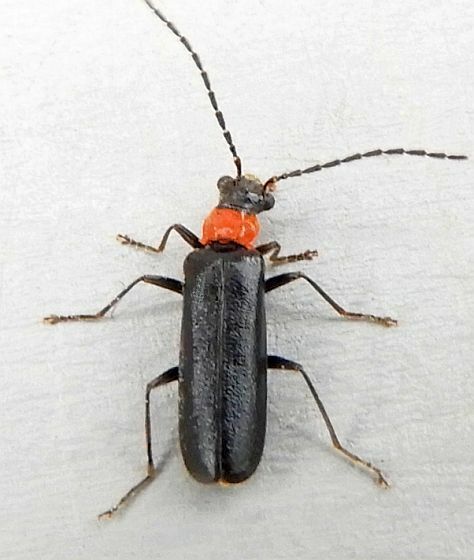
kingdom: Animalia
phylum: Arthropoda
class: Insecta
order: Coleoptera
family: Cantharidae
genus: Dichelotarsus
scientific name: Dichelotarsus pattoni
